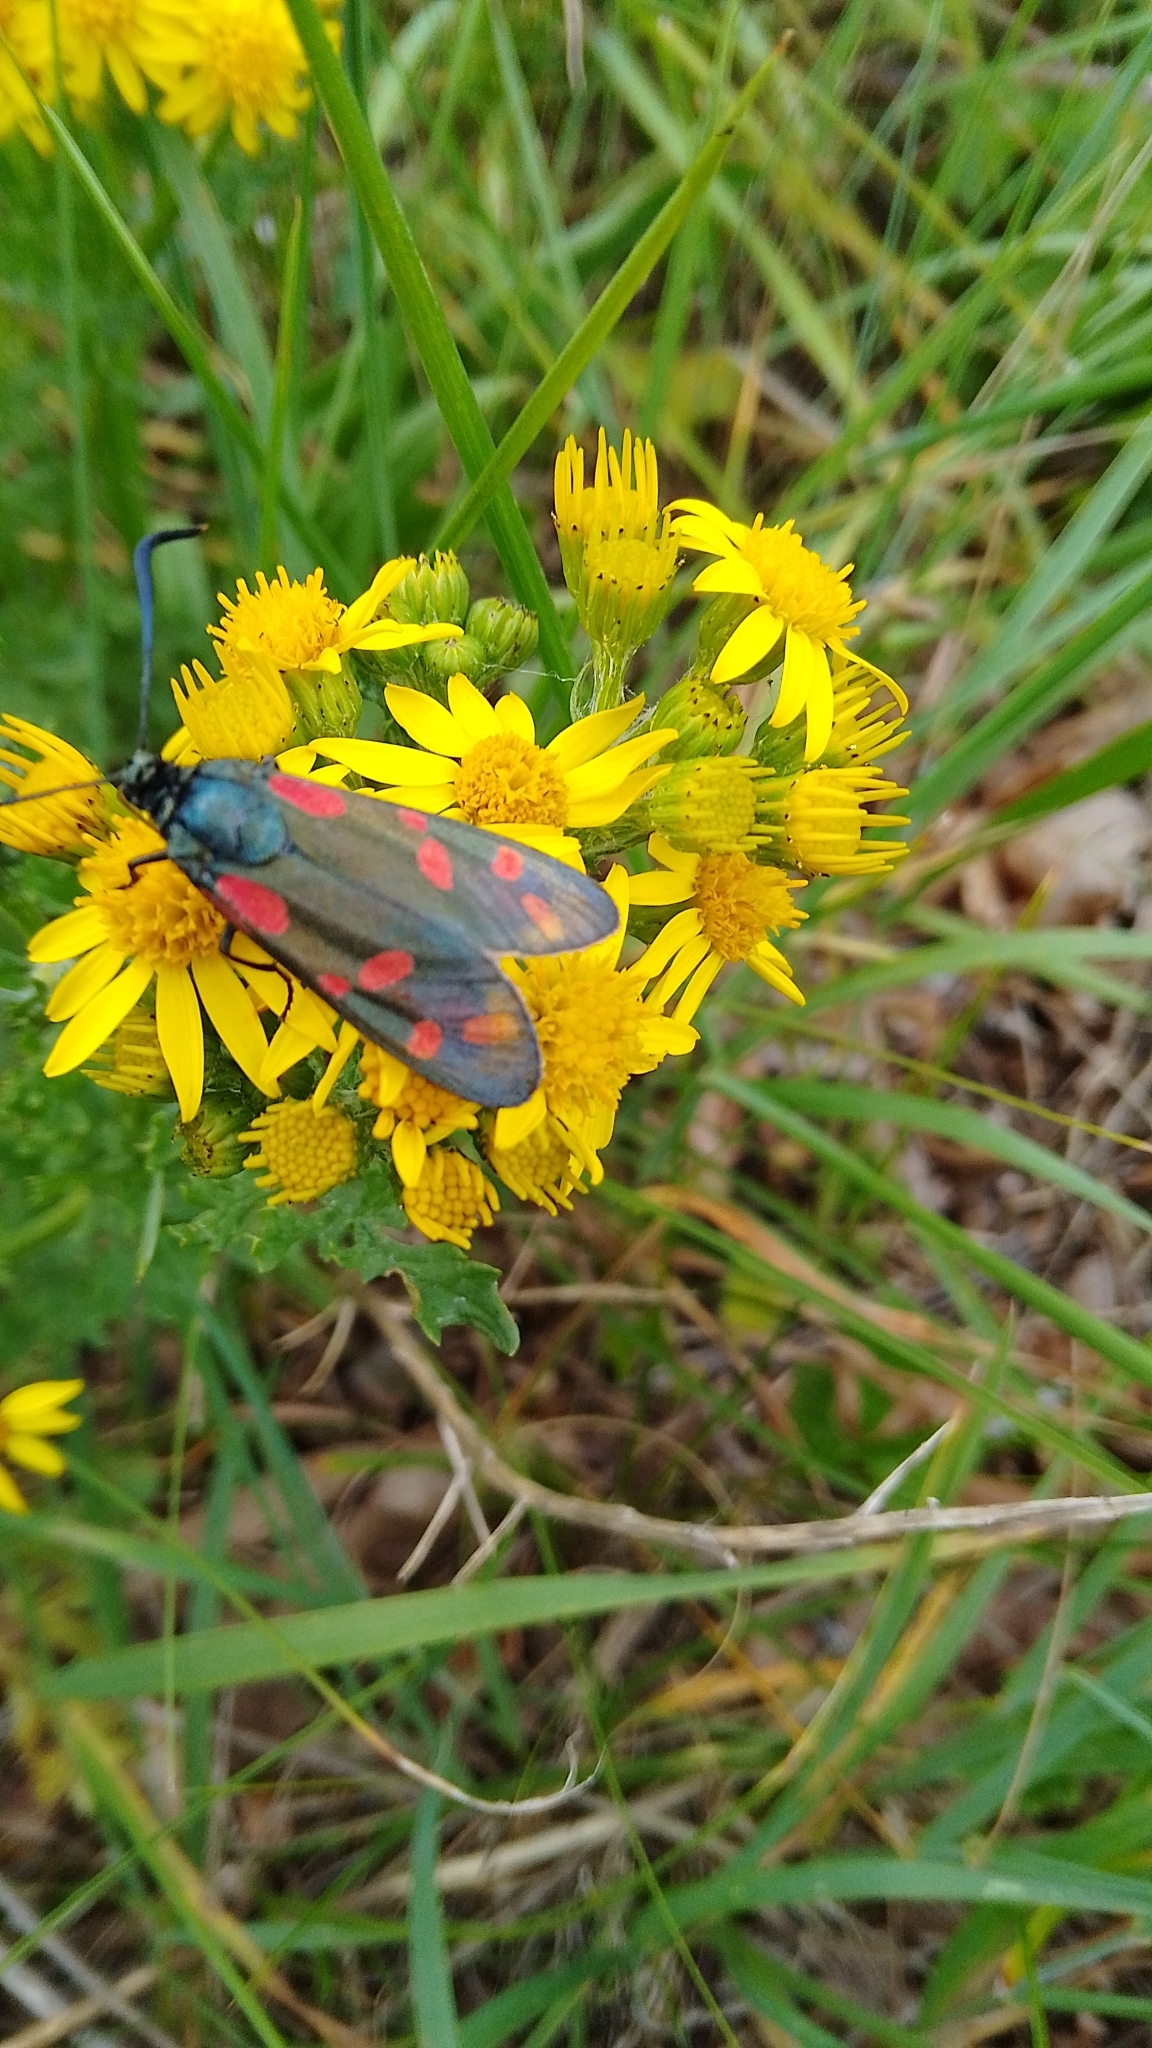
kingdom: Animalia
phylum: Arthropoda
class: Insecta
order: Lepidoptera
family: Zygaenidae
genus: Zygaena
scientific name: Zygaena filipendulae
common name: Six-spot burnet
